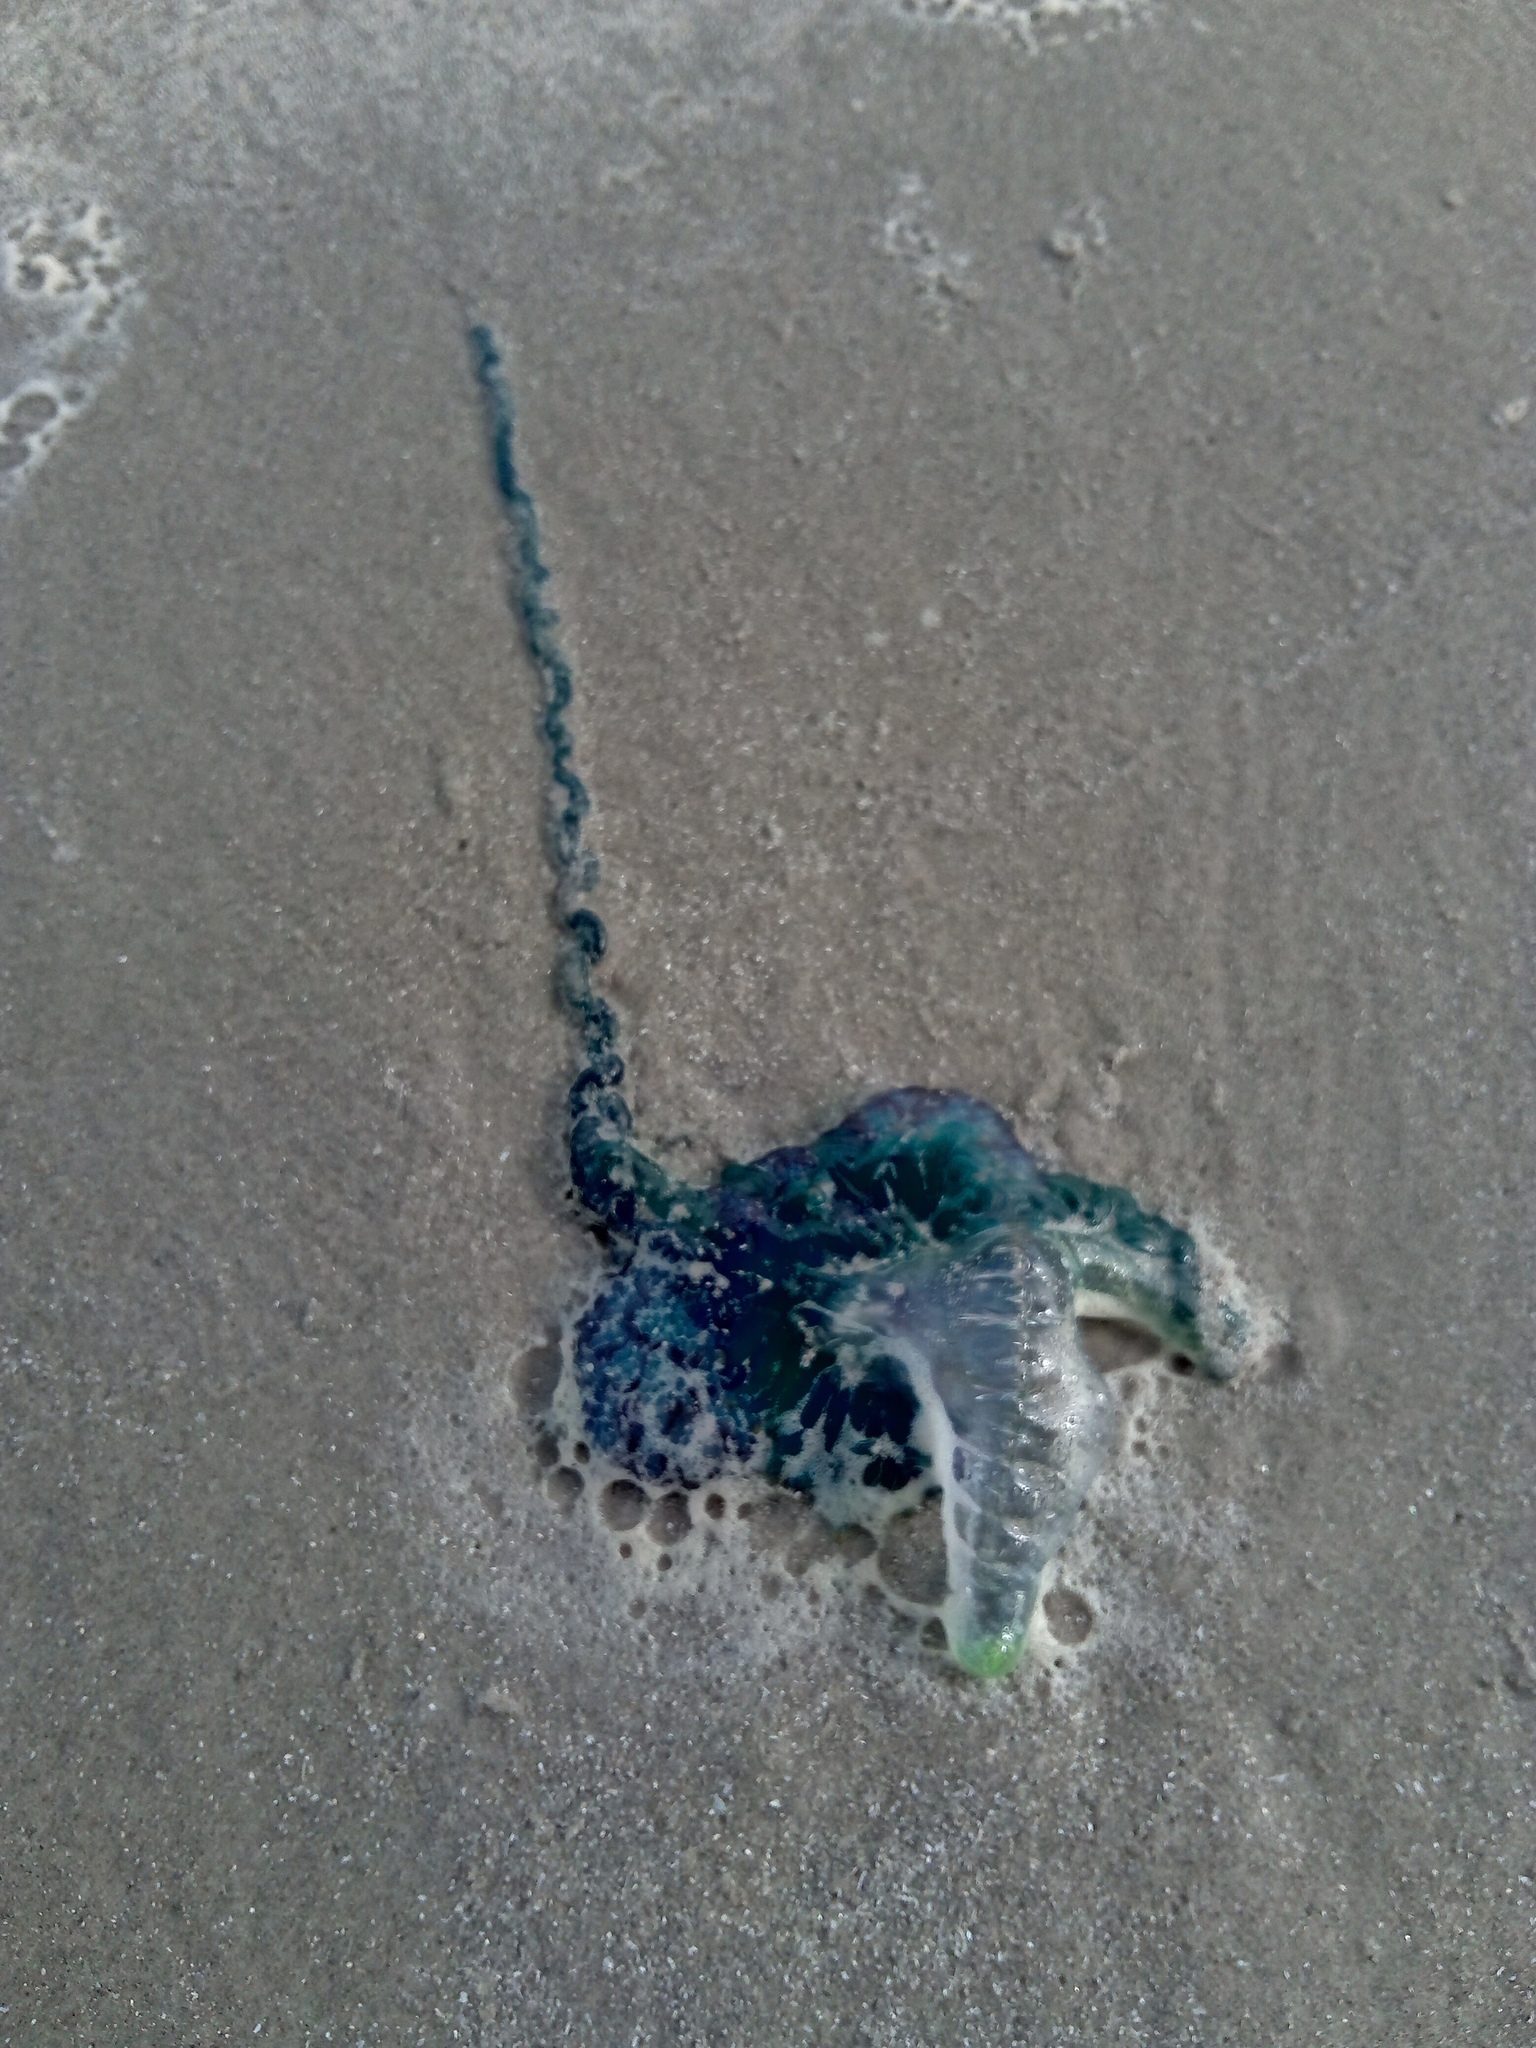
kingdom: Animalia
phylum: Cnidaria
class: Hydrozoa
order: Siphonophorae
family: Physaliidae
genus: Physalia
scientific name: Physalia physalis
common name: Portuguese man-of-war
